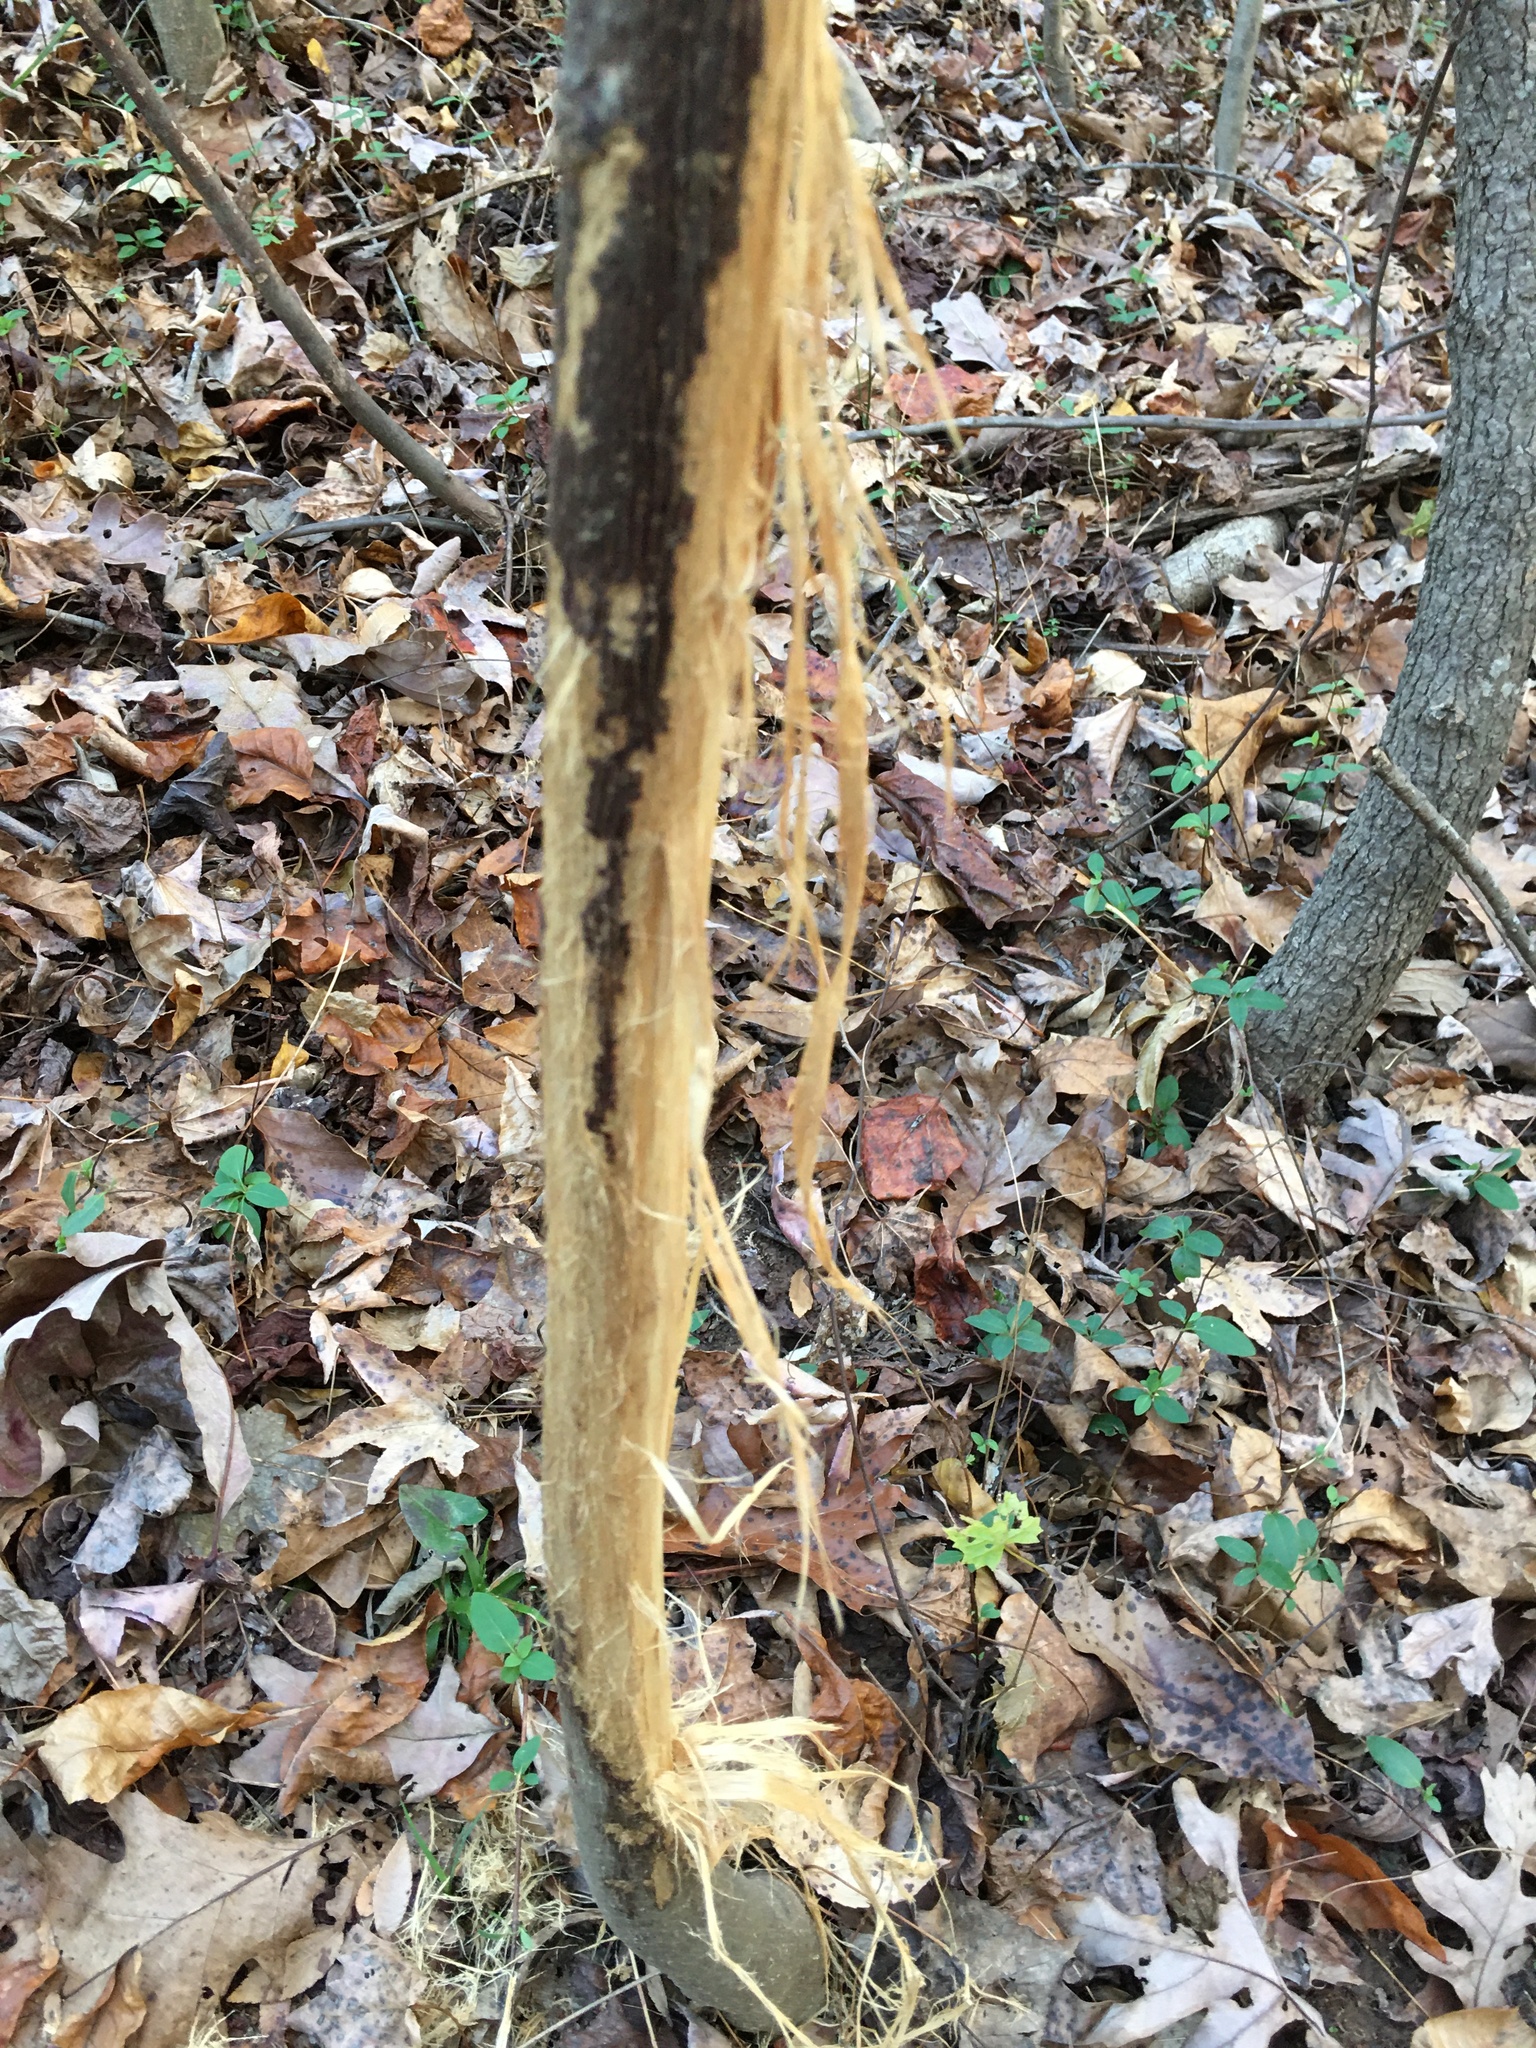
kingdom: Animalia
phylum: Chordata
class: Mammalia
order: Artiodactyla
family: Cervidae
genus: Odocoileus
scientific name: Odocoileus virginianus
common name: White-tailed deer
